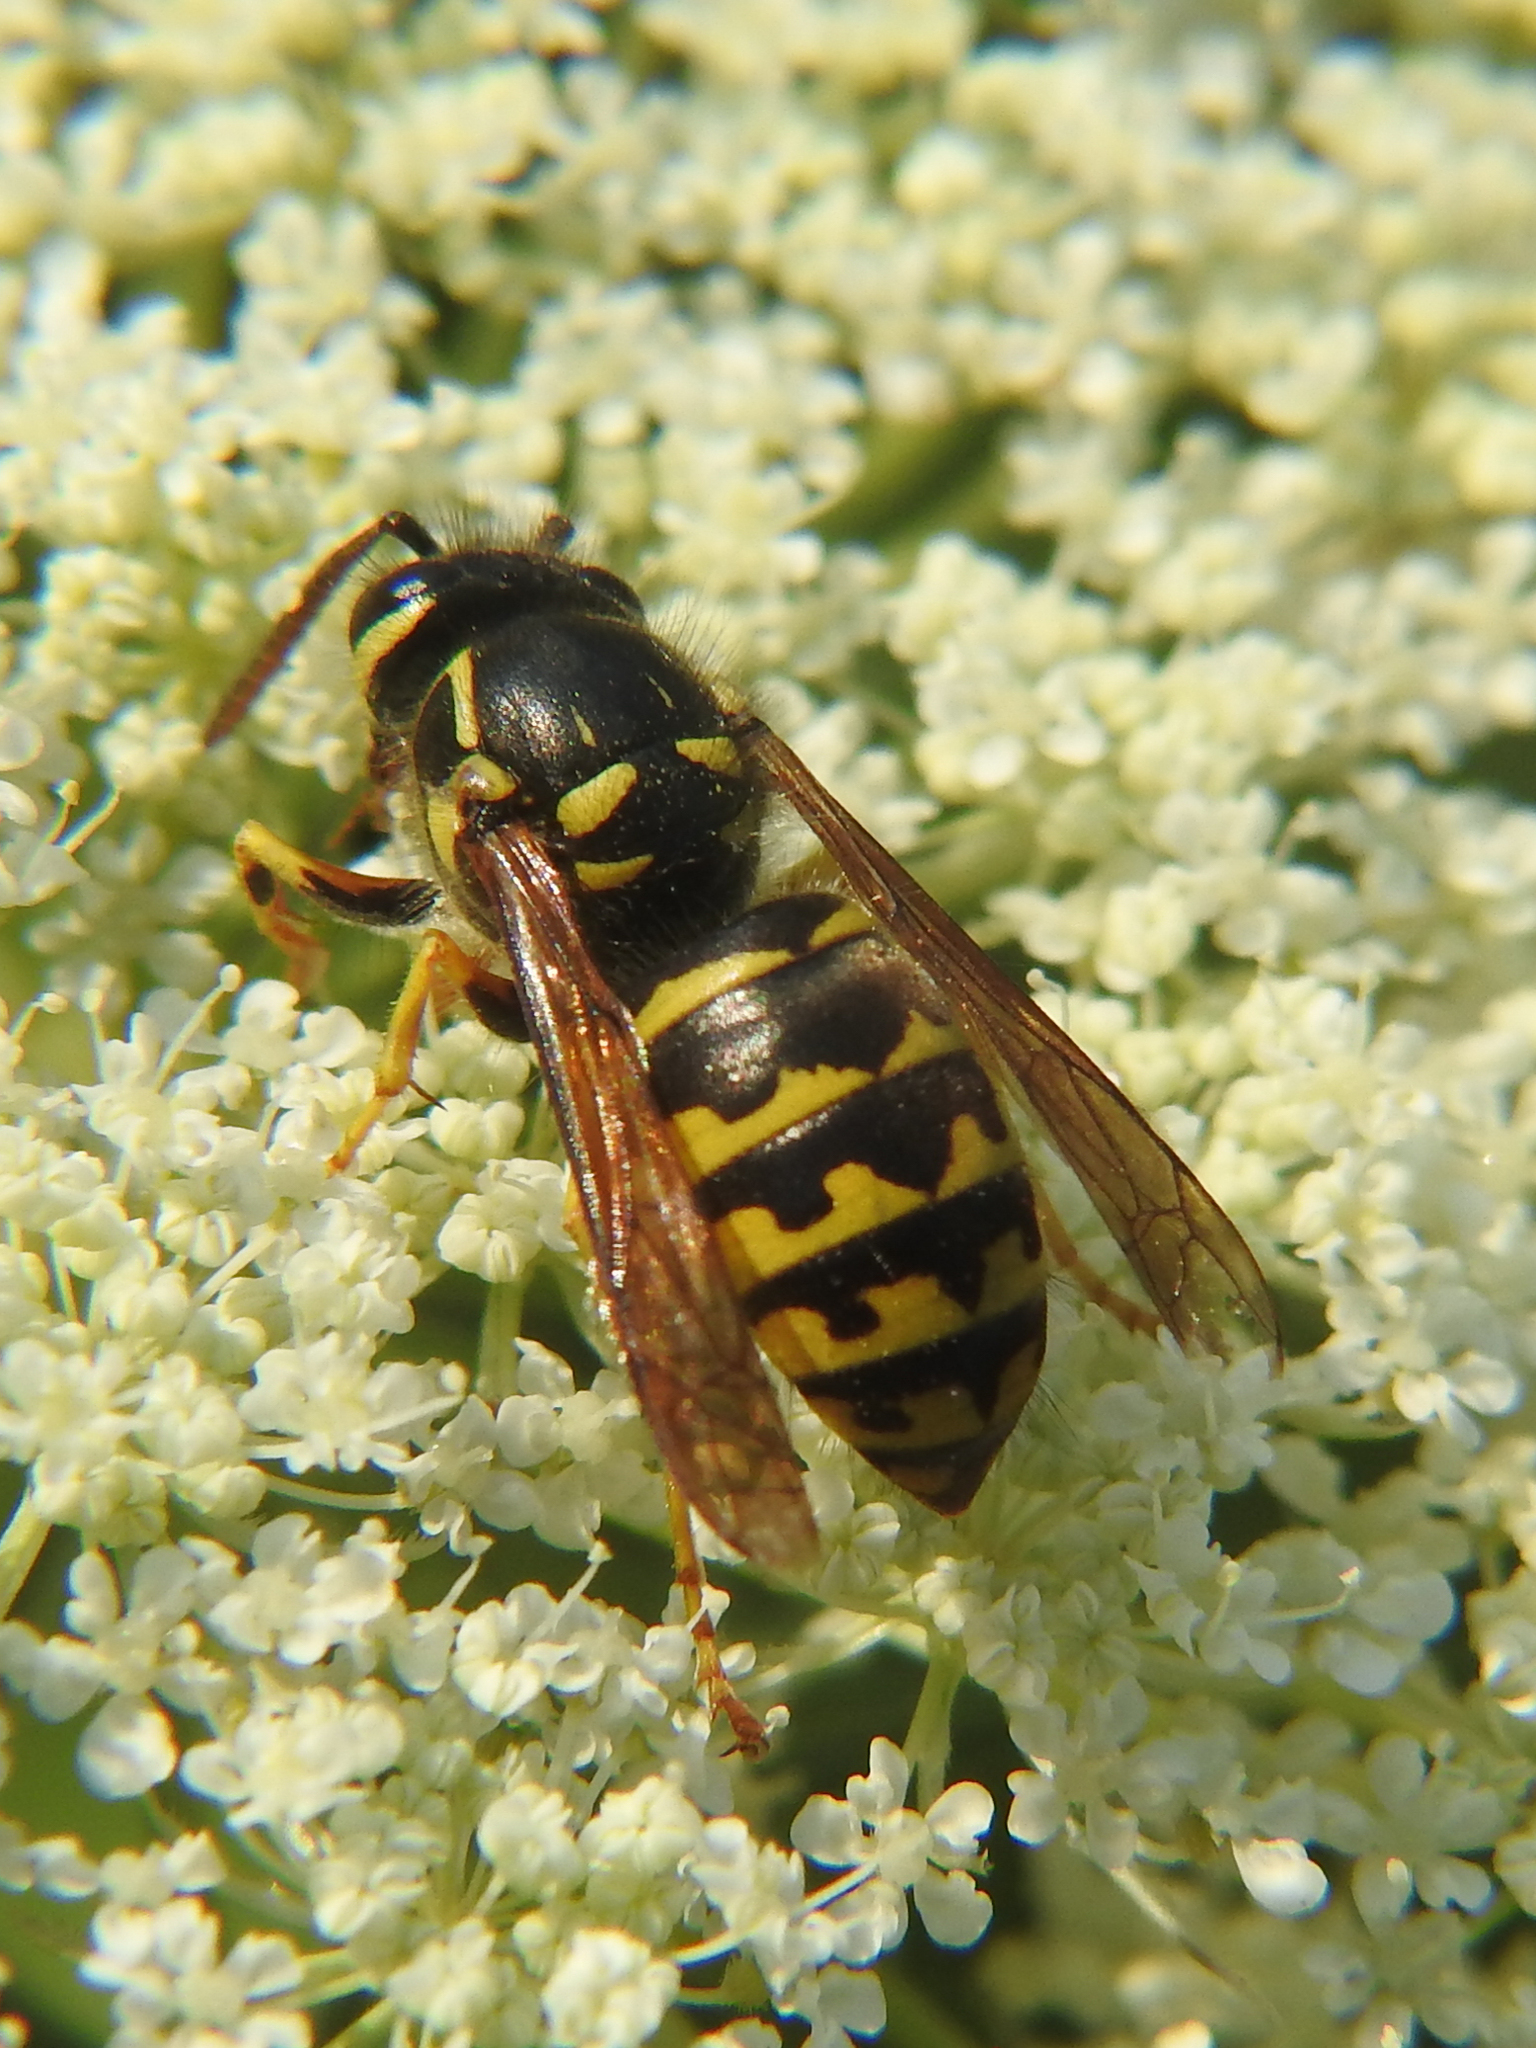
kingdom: Animalia
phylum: Arthropoda
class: Insecta
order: Hymenoptera
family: Vespidae
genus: Dolichovespula
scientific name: Dolichovespula arenaria
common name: Aerial yellowjacket
